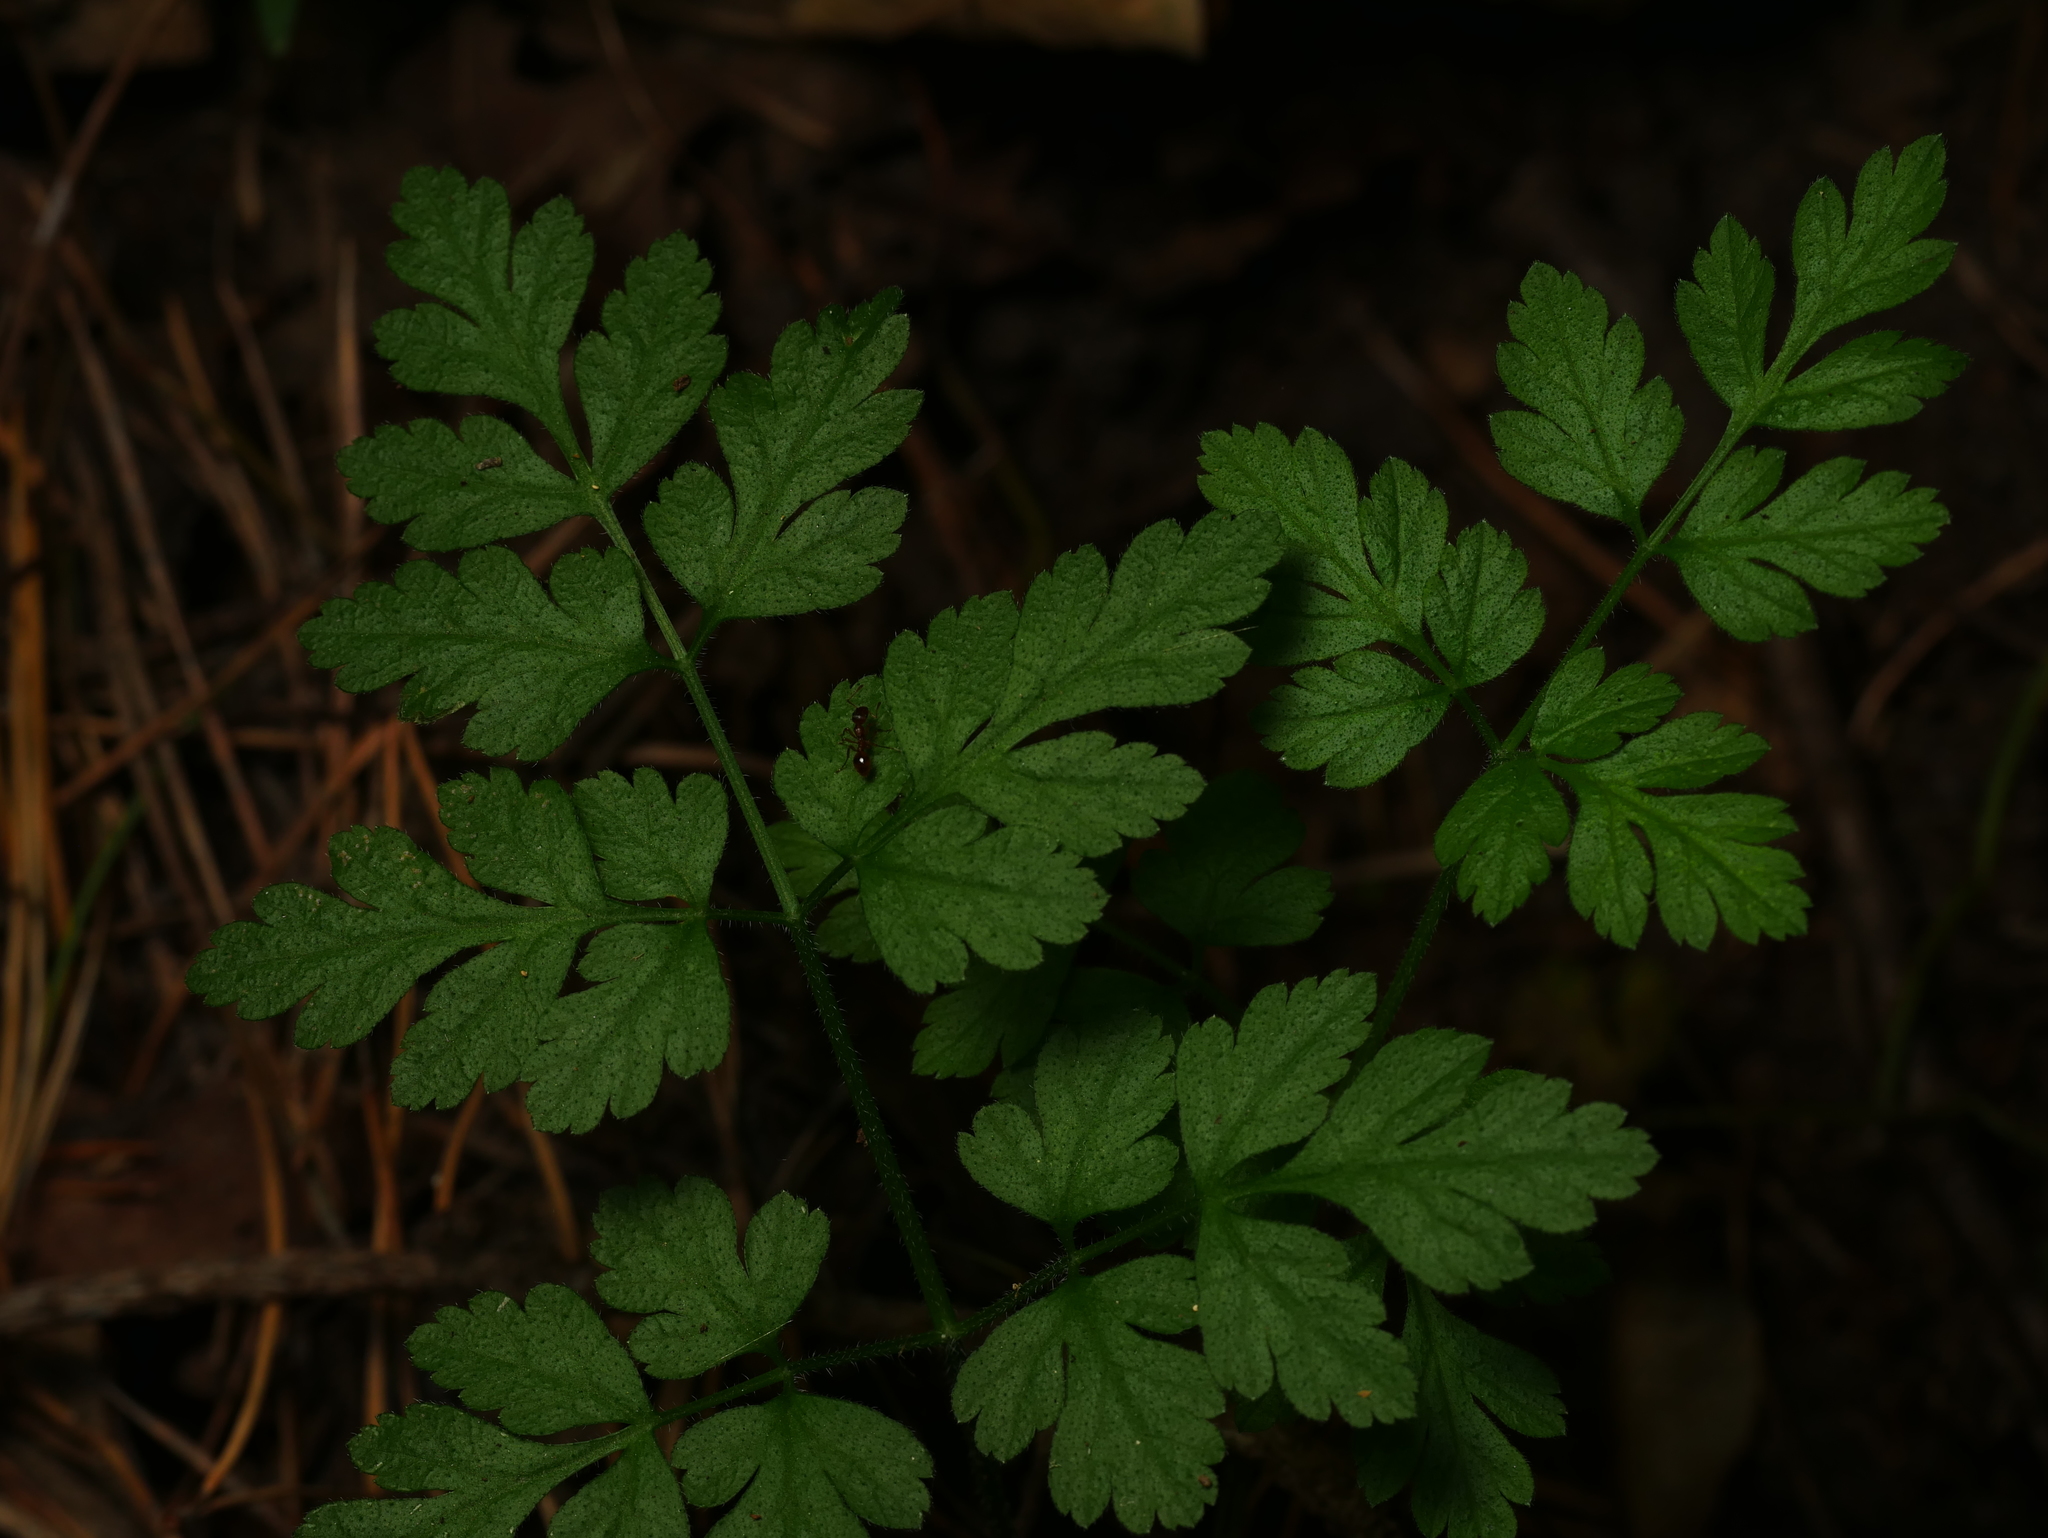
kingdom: Plantae
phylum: Tracheophyta
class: Magnoliopsida
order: Apiales
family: Apiaceae
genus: Chaerophyllum
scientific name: Chaerophyllum temulum
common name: Rough chervil
